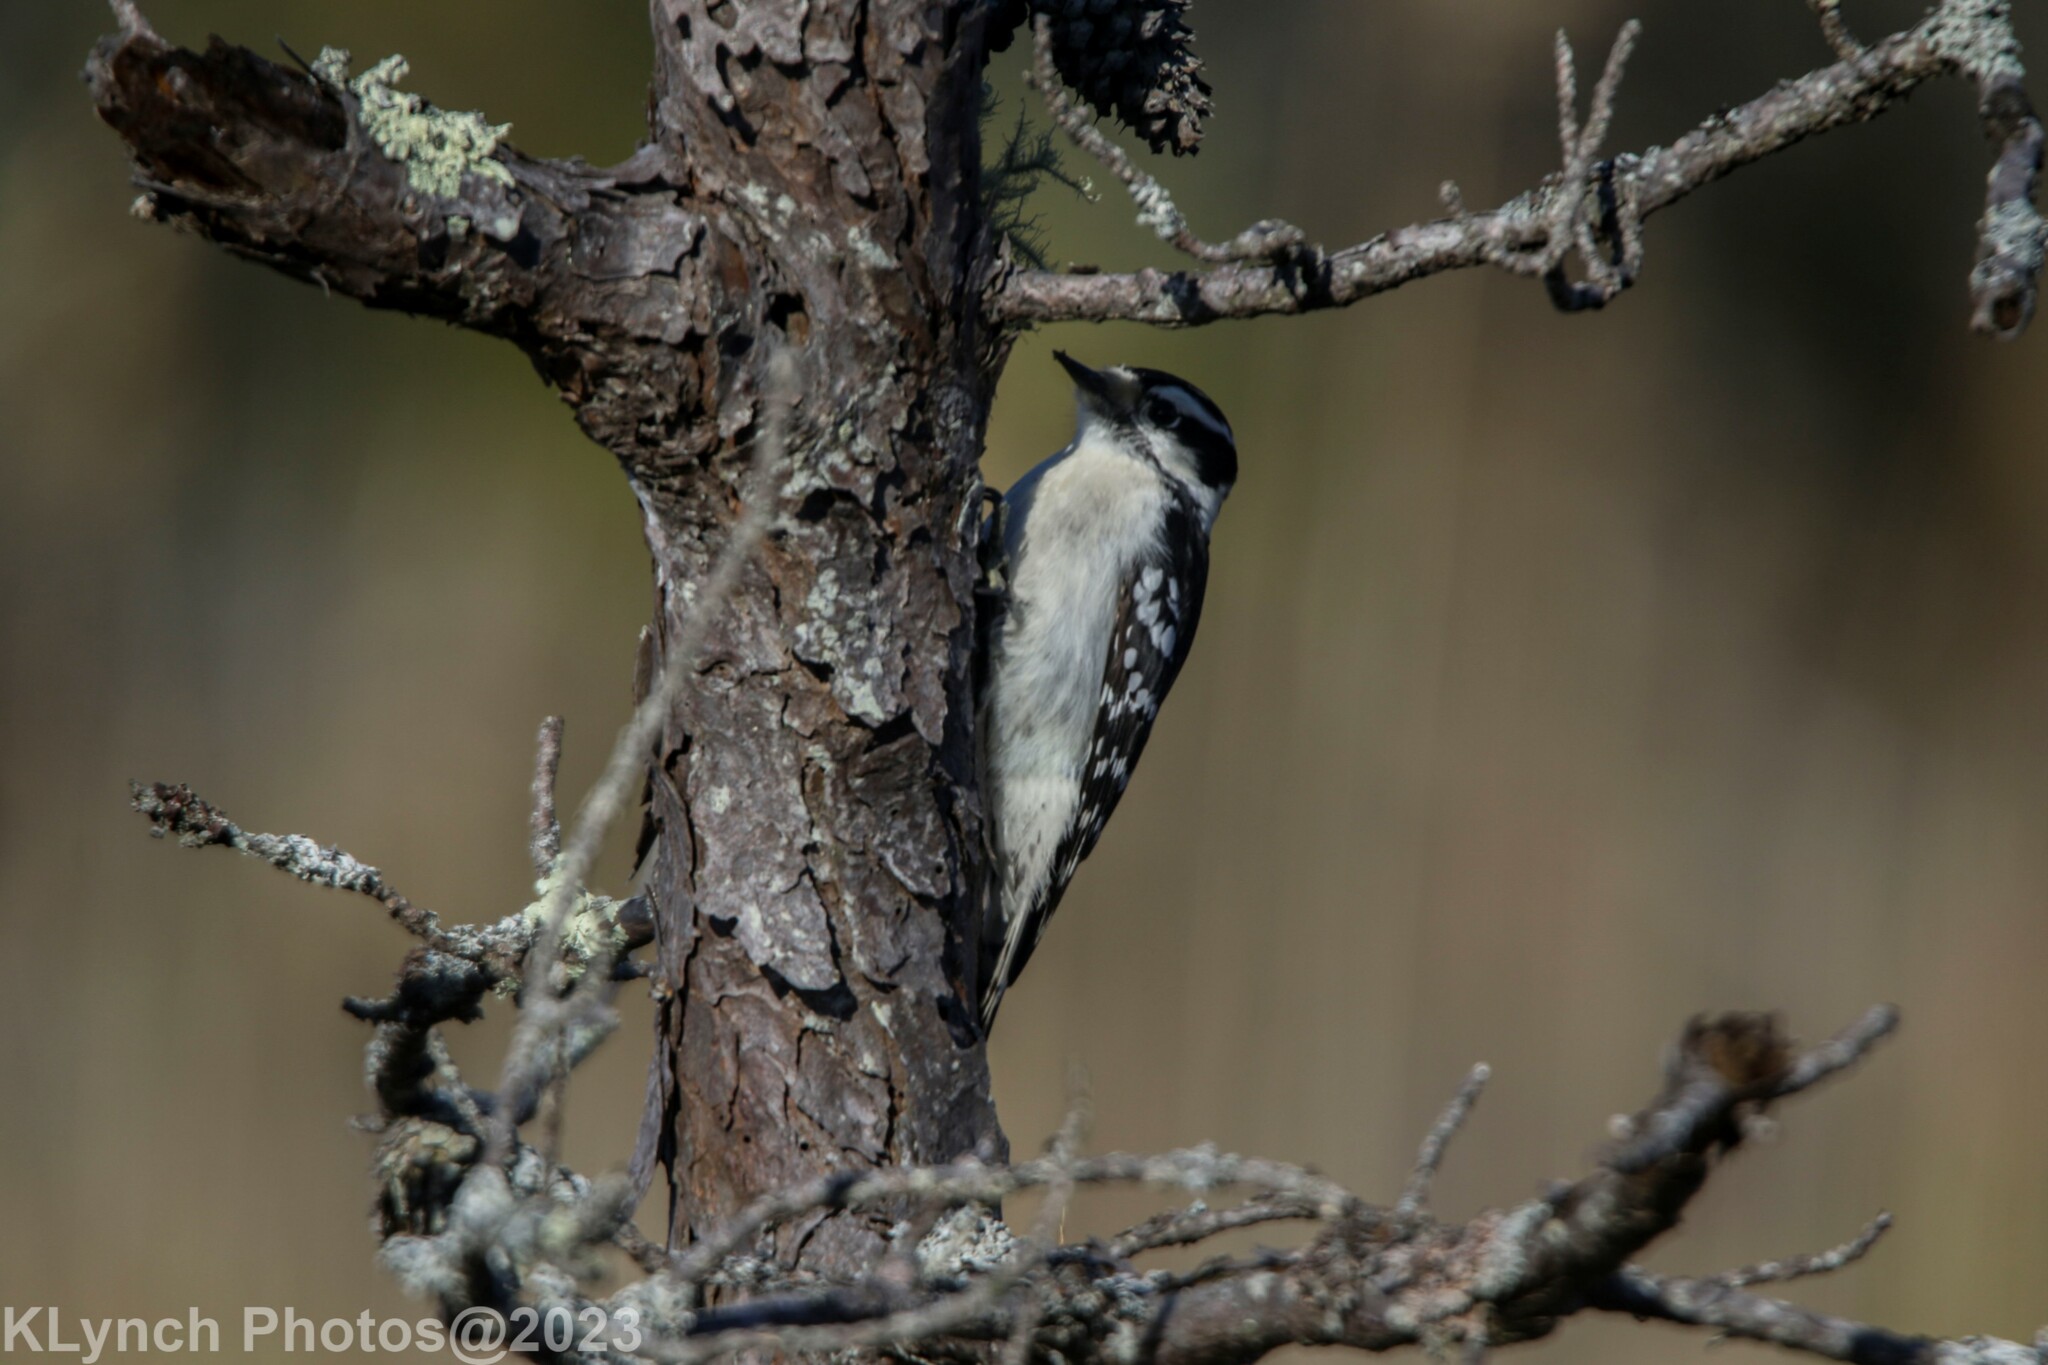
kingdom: Animalia
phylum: Chordata
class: Aves
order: Piciformes
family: Picidae
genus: Dryobates
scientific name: Dryobates pubescens
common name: Downy woodpecker
